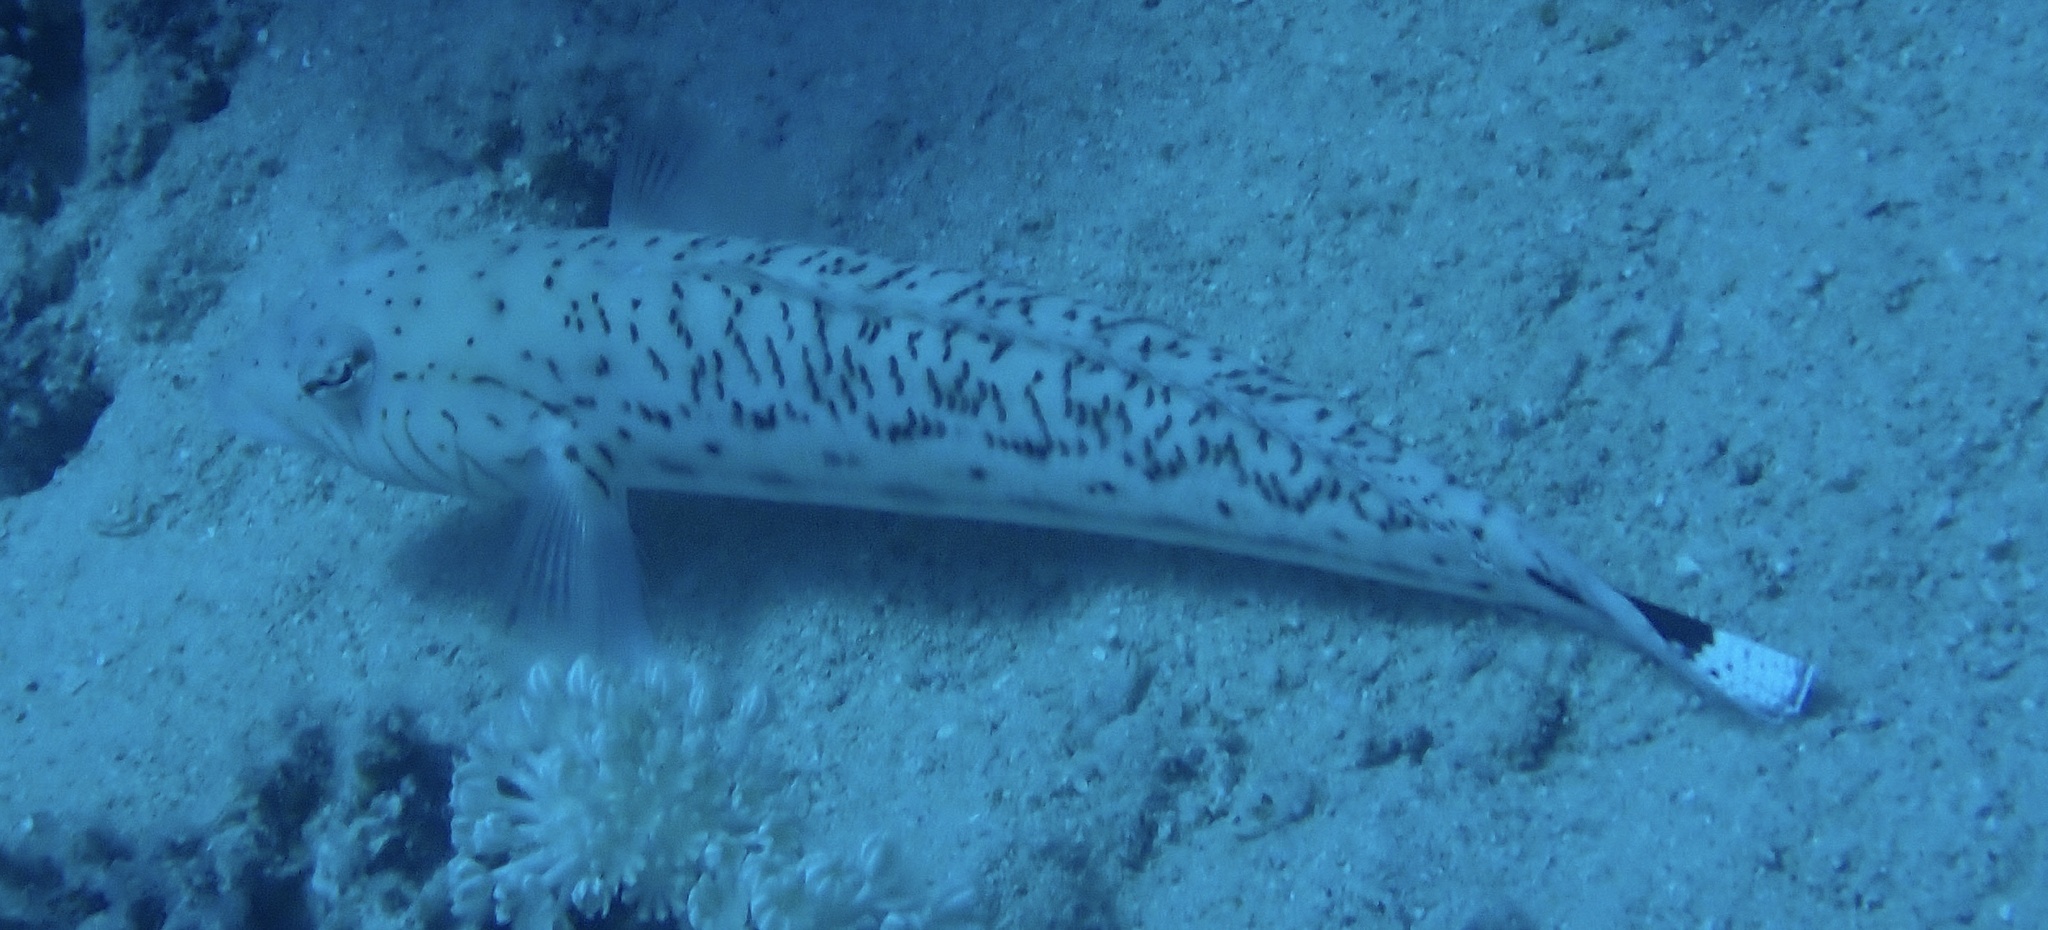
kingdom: Animalia
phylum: Chordata
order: Perciformes
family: Pinguipedidae
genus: Parapercis
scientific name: Parapercis hexophtalma
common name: Speckled sandperch
